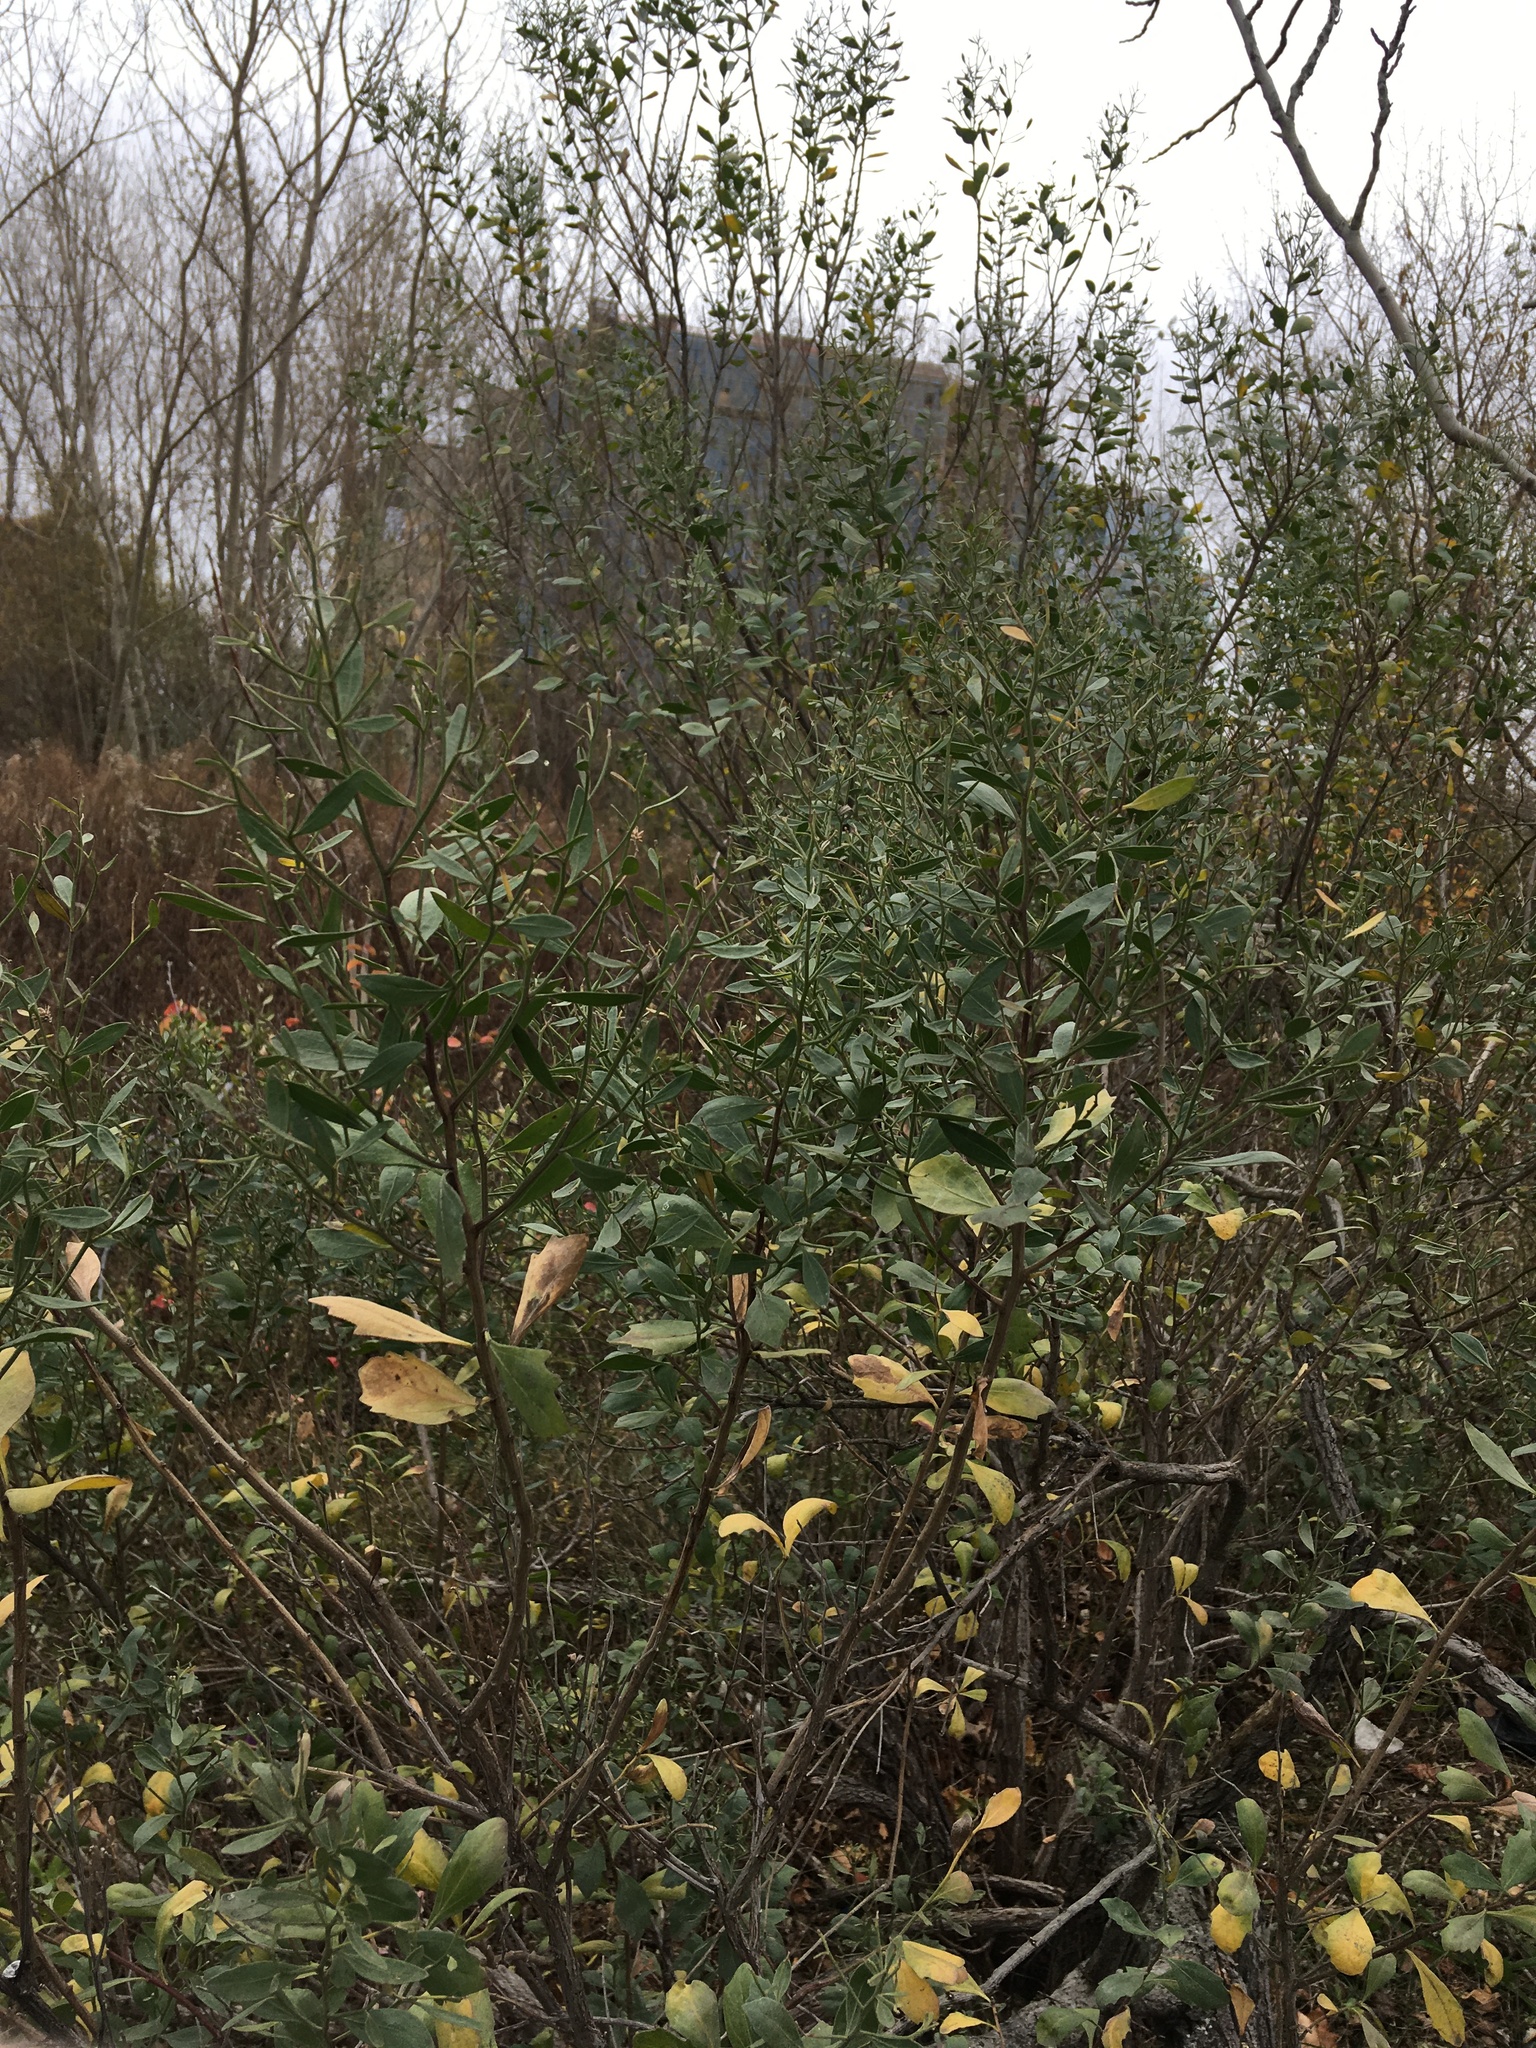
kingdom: Plantae
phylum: Tracheophyta
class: Magnoliopsida
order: Asterales
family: Asteraceae
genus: Baccharis
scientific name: Baccharis halimifolia
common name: Eastern baccharis
